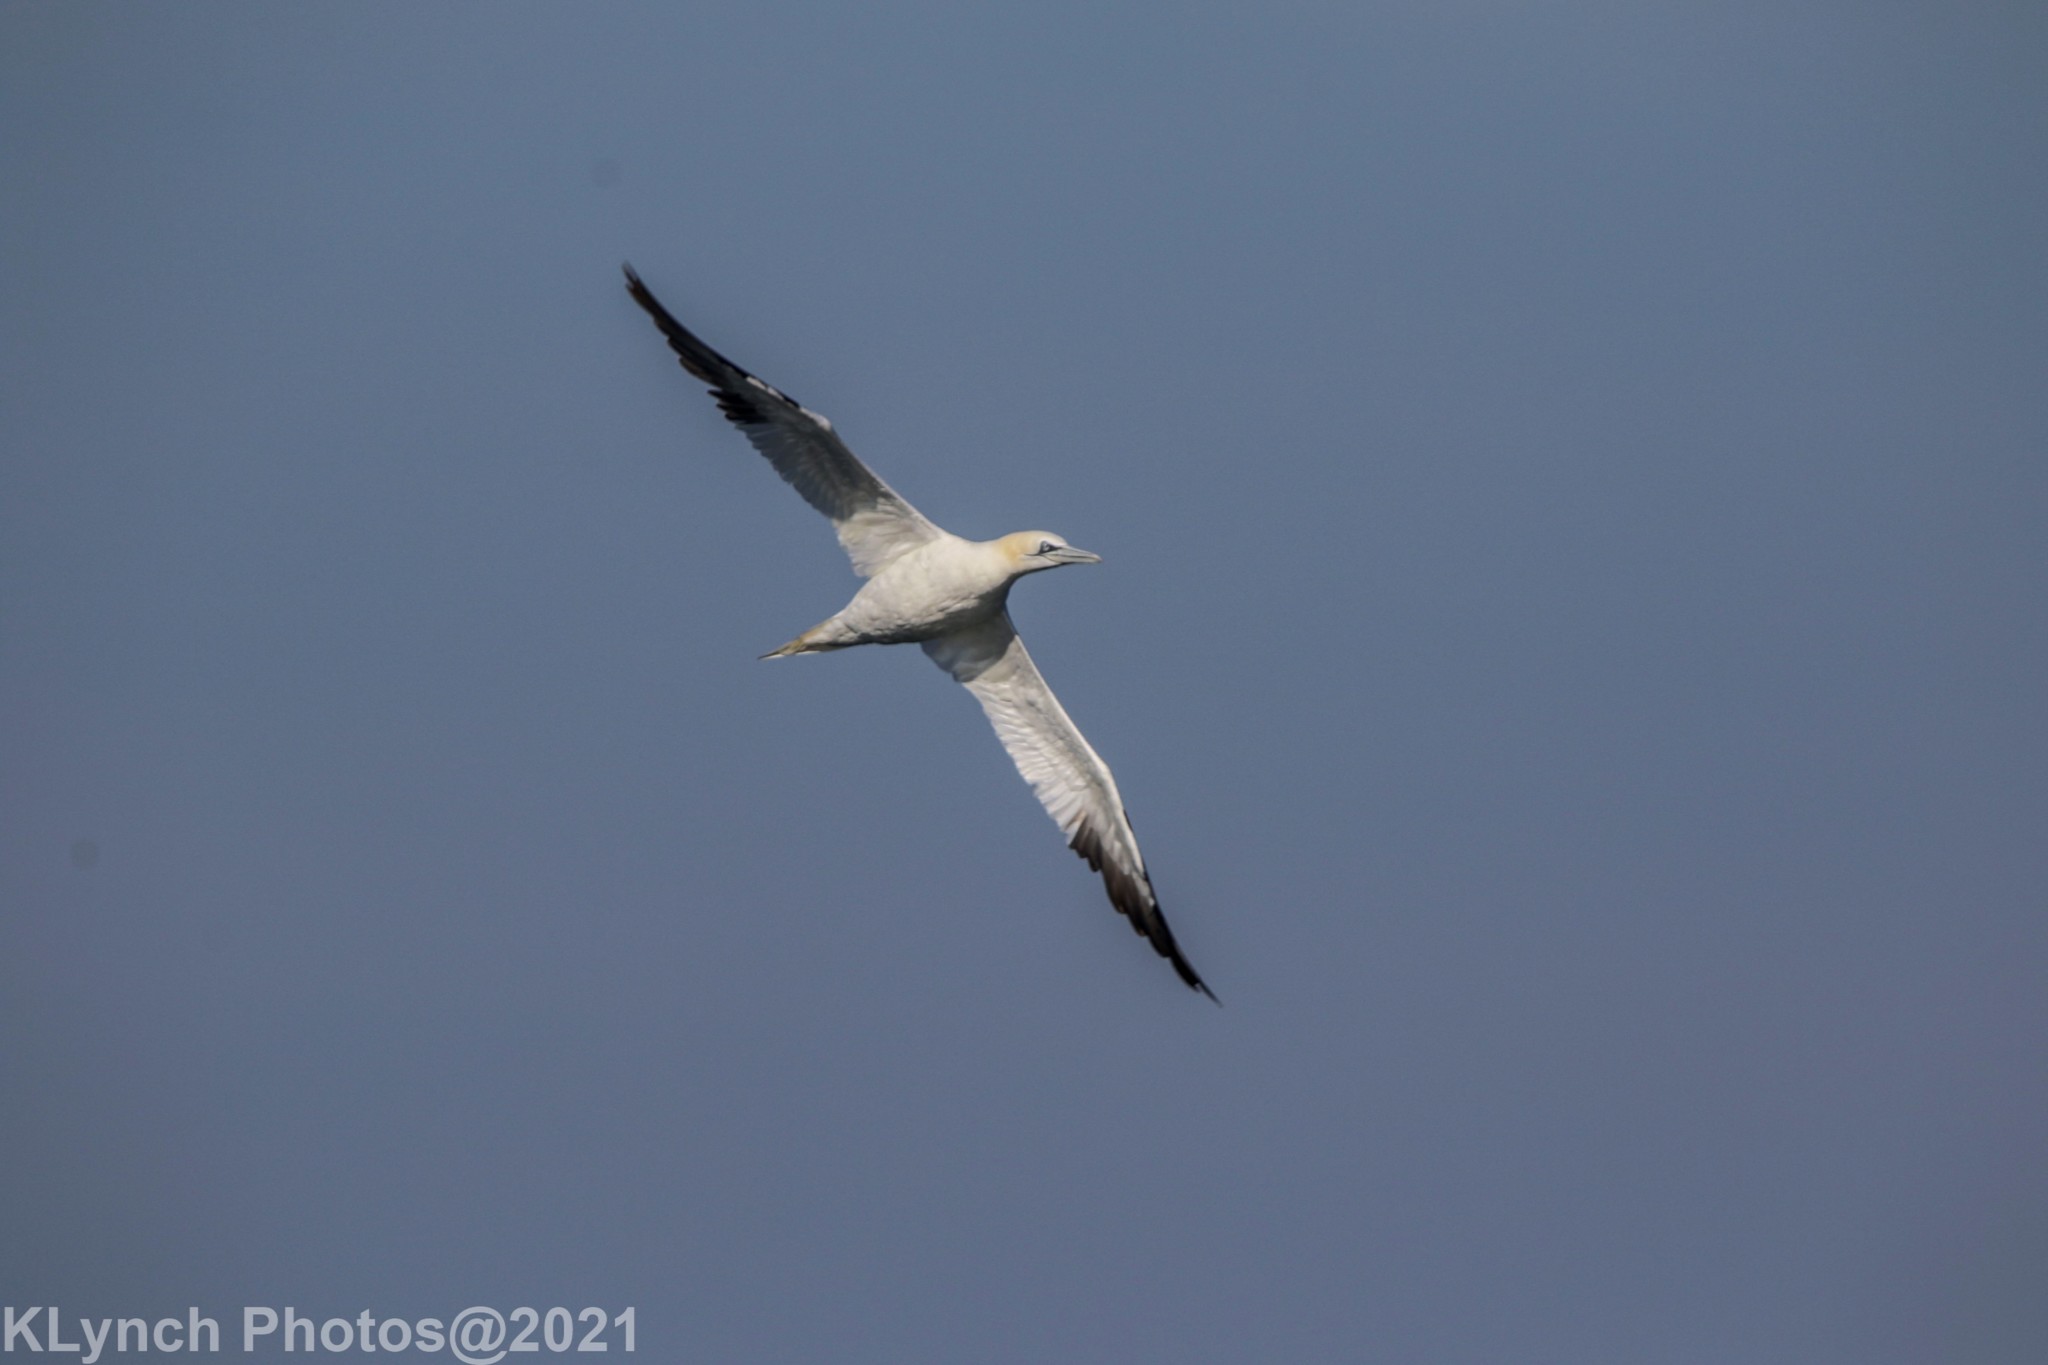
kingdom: Animalia
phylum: Chordata
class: Aves
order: Suliformes
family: Sulidae
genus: Morus
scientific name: Morus bassanus
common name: Northern gannet
